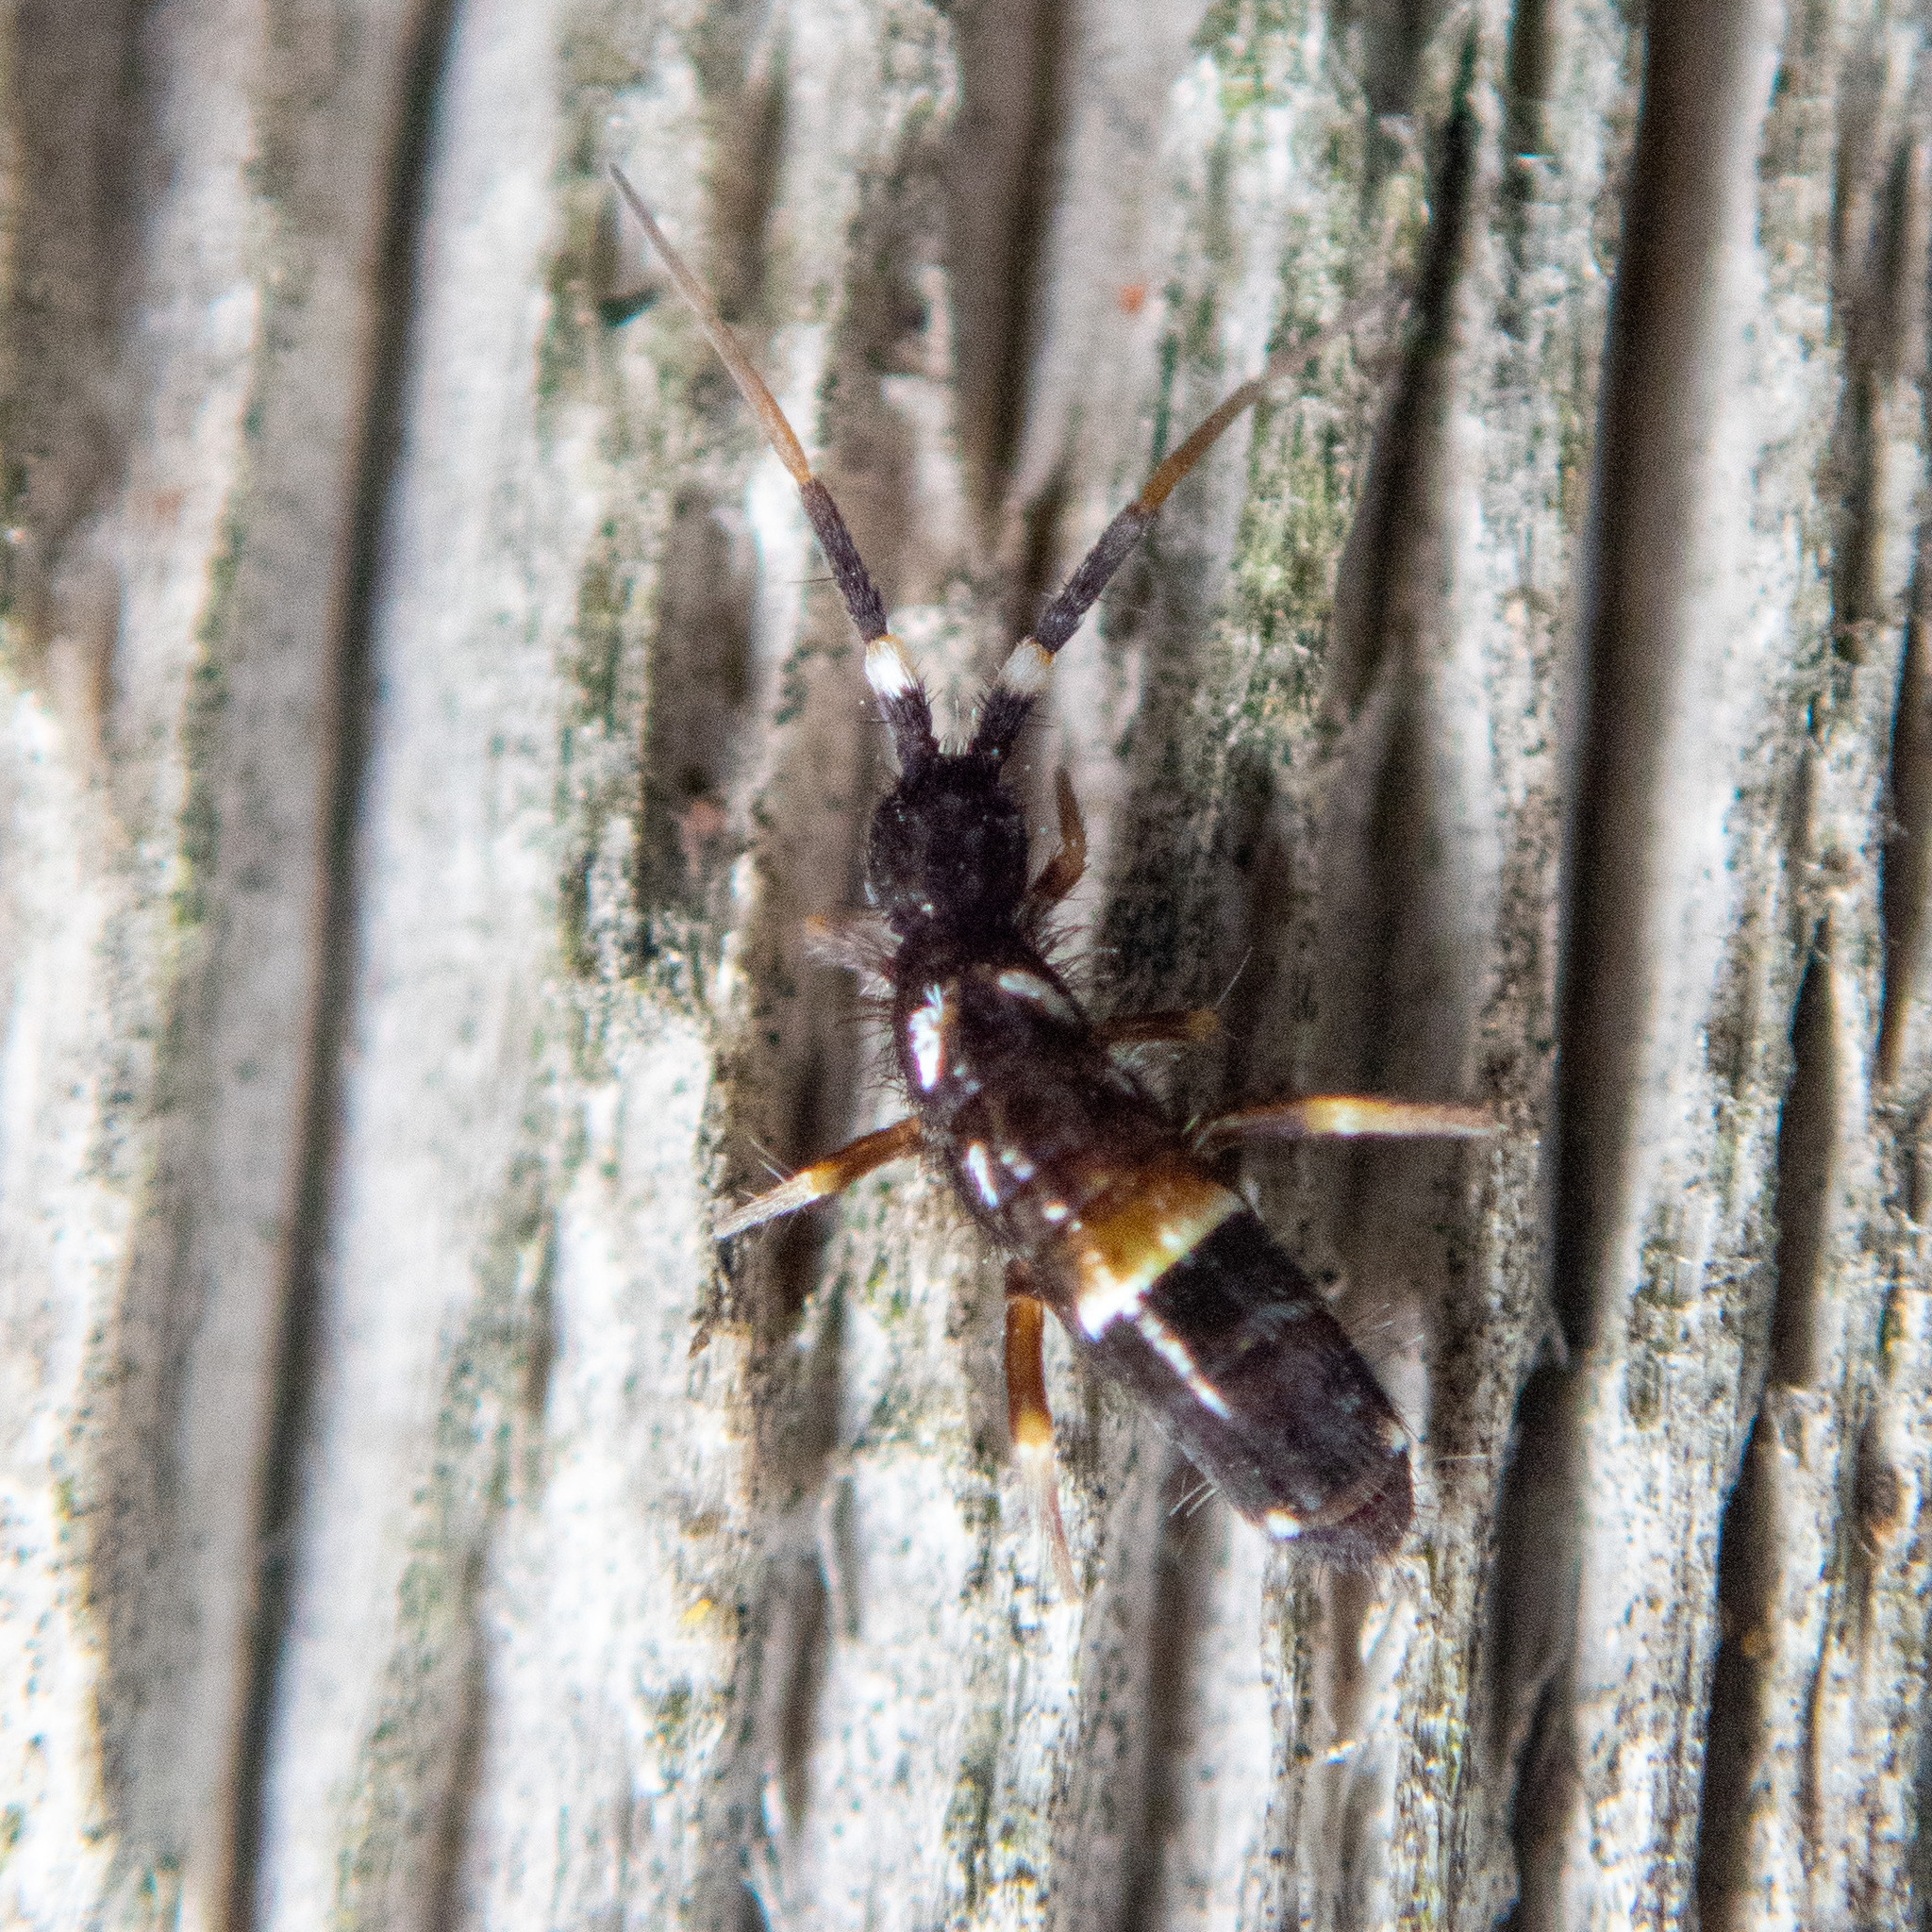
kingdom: Animalia
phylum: Arthropoda
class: Collembola
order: Entomobryomorpha
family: Orchesellidae
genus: Orchesella
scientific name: Orchesella cincta
